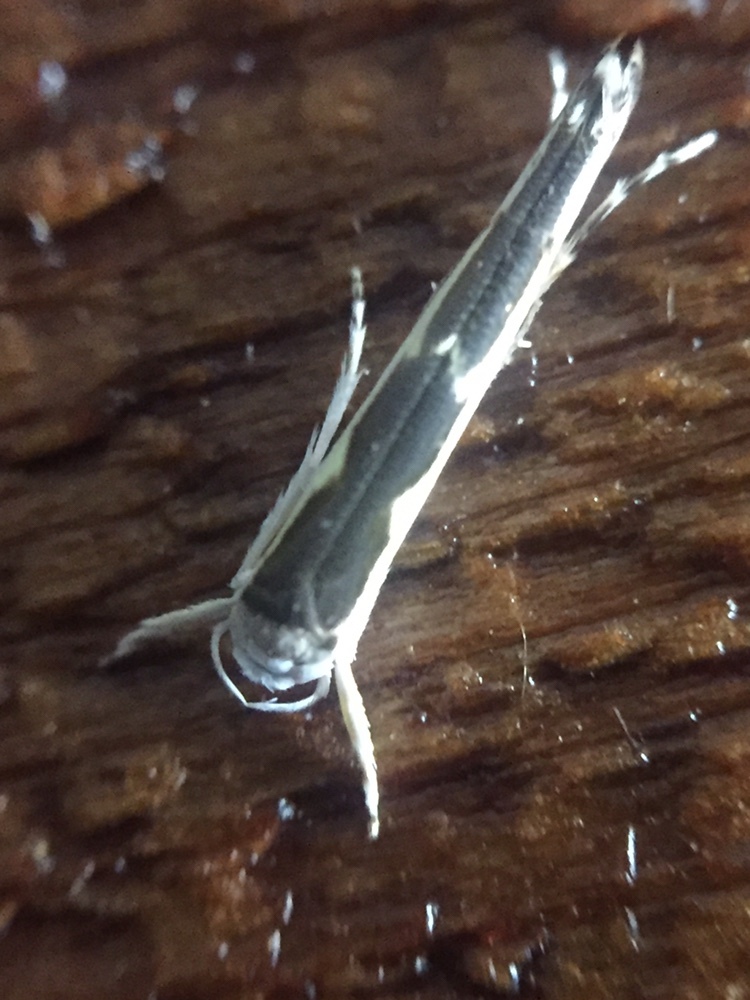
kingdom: Animalia
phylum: Arthropoda
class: Insecta
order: Lepidoptera
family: Roeslerstammiidae
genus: Vanicela
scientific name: Vanicela disjunctella
